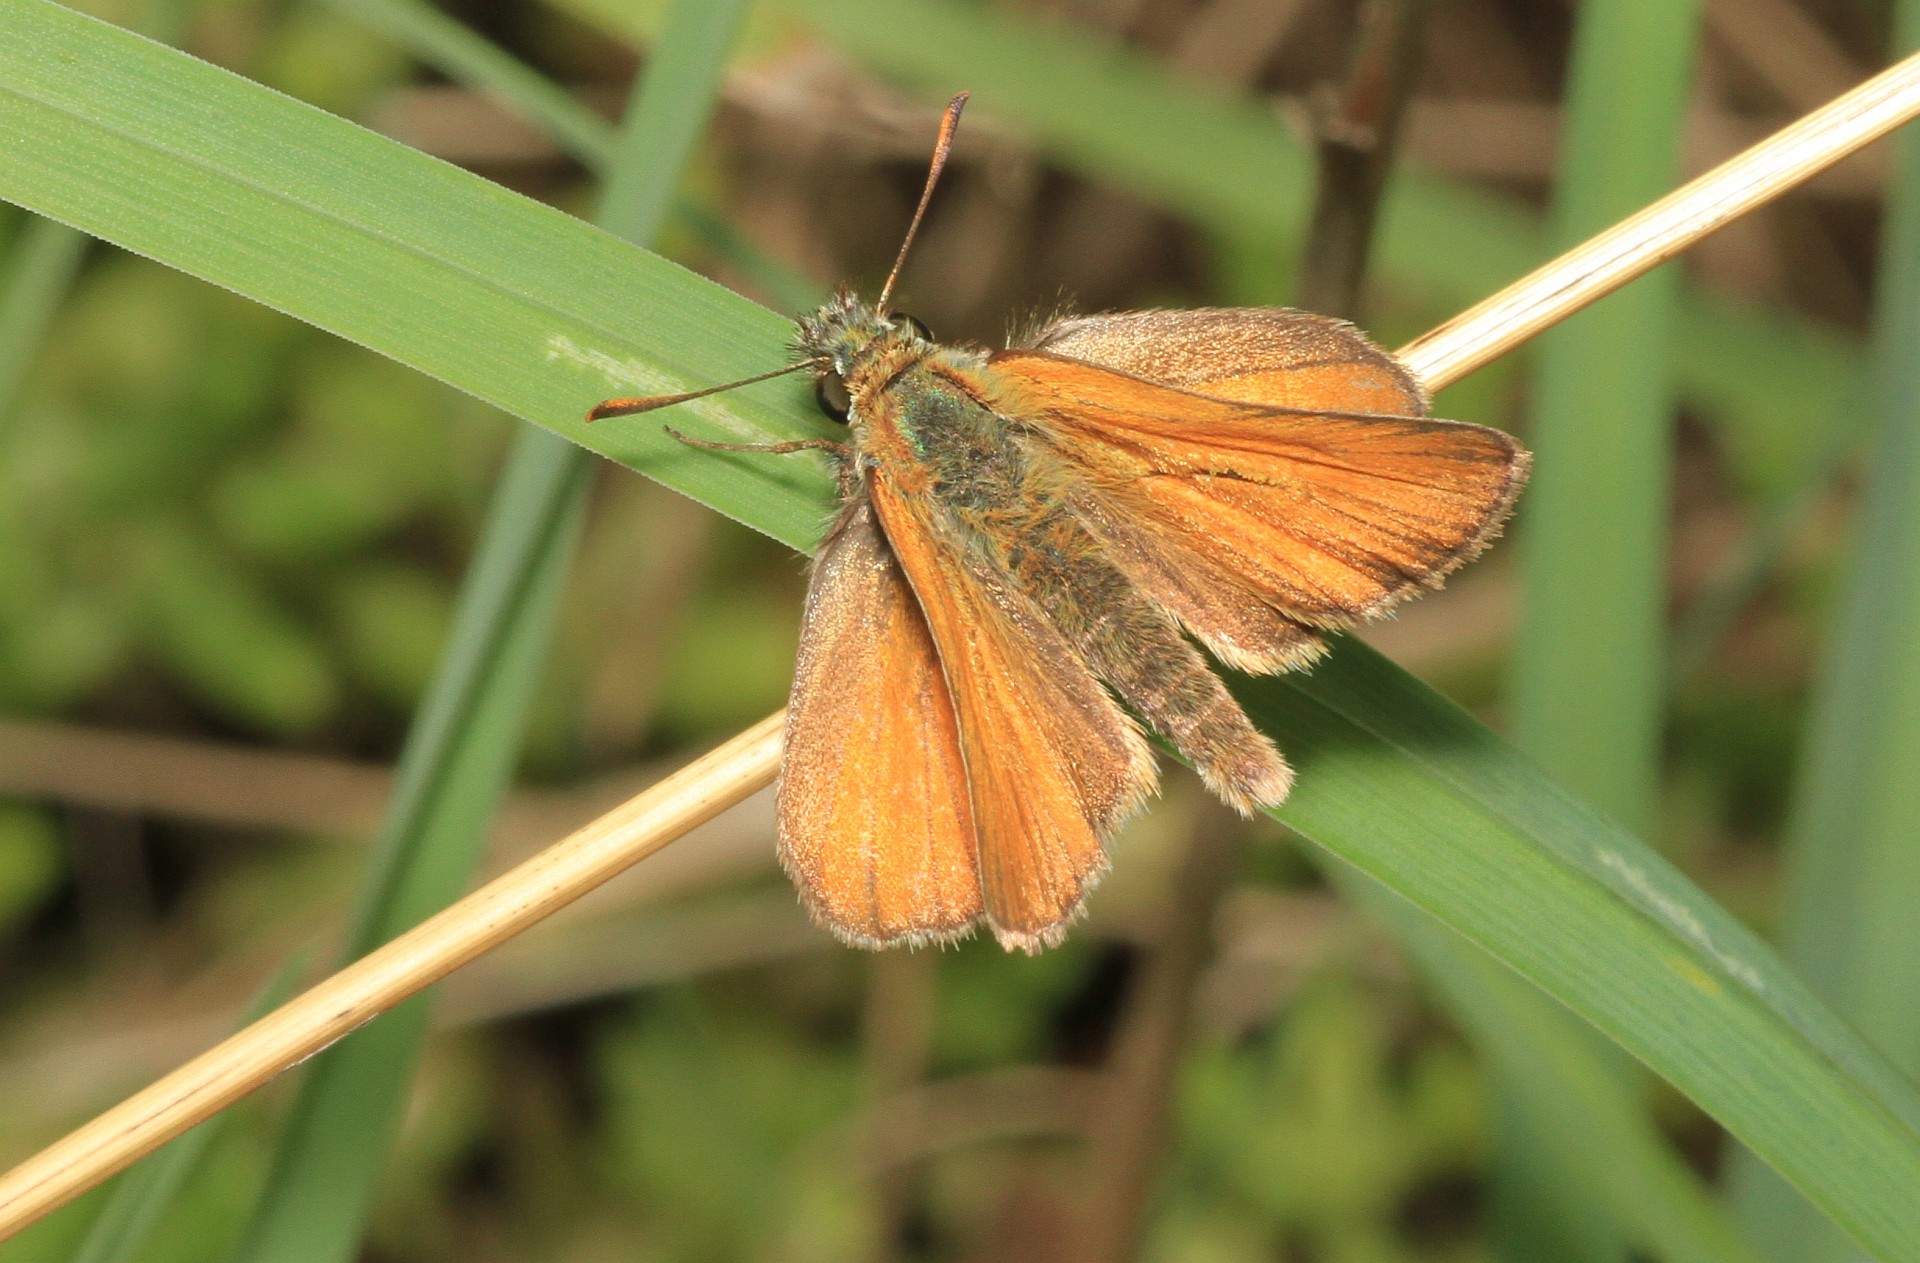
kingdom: Animalia
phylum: Arthropoda
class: Insecta
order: Lepidoptera
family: Hesperiidae
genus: Thymelicus
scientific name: Thymelicus sylvestris
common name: Small skipper
